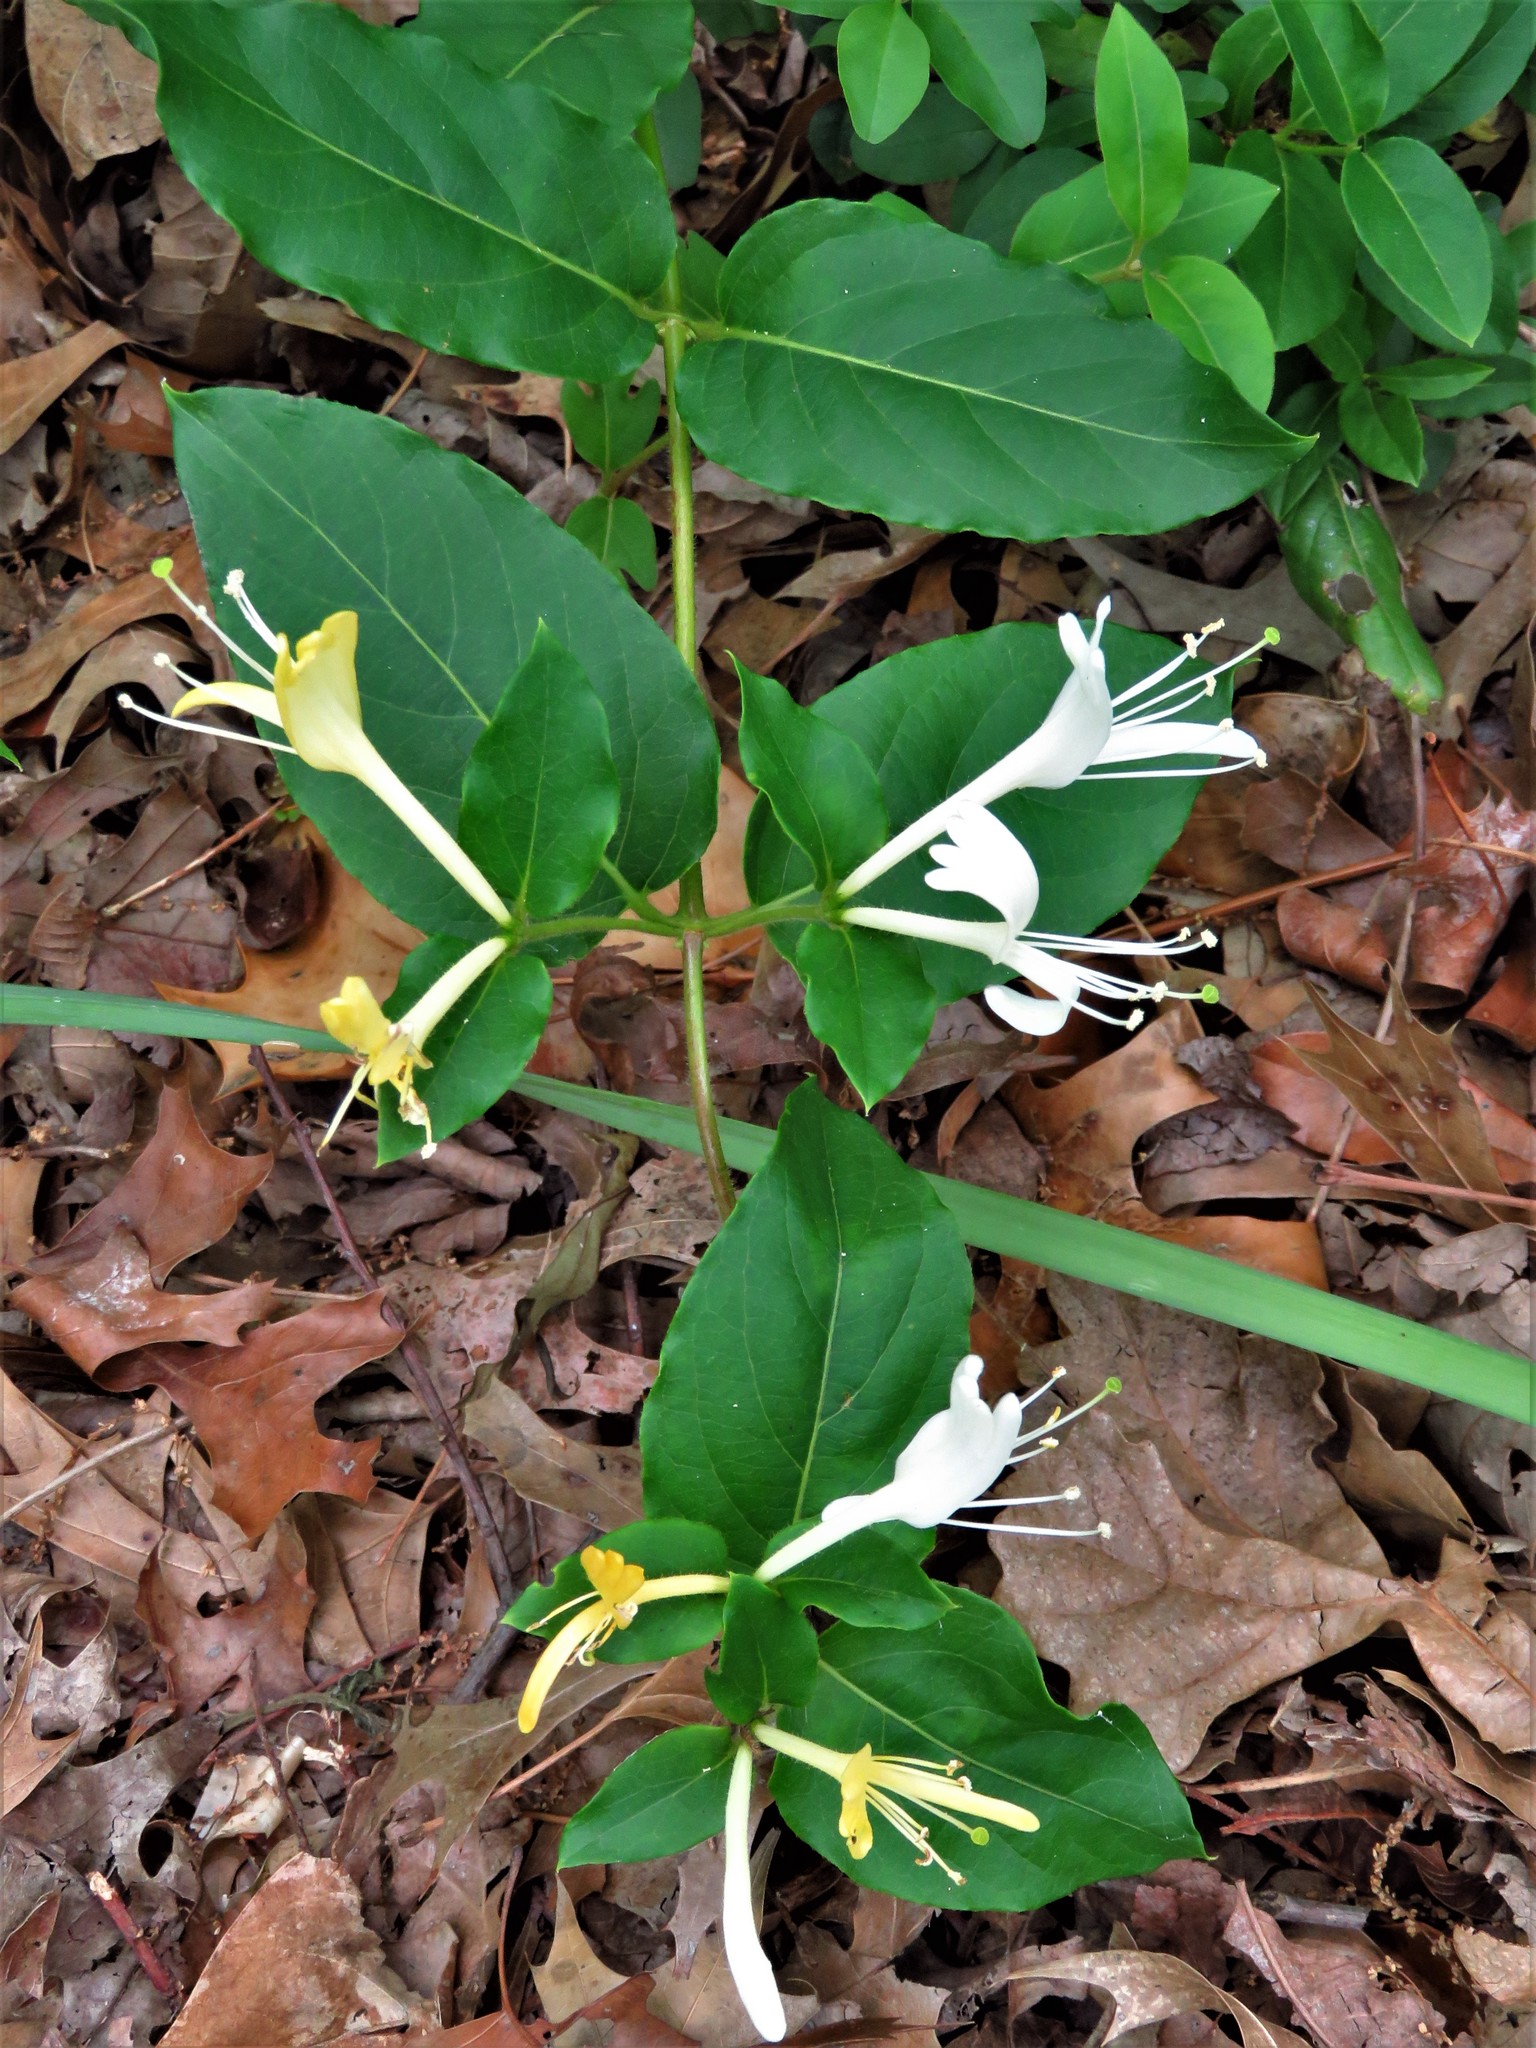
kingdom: Plantae
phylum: Tracheophyta
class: Magnoliopsida
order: Dipsacales
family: Caprifoliaceae
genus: Lonicera
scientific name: Lonicera japonica
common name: Japanese honeysuckle
